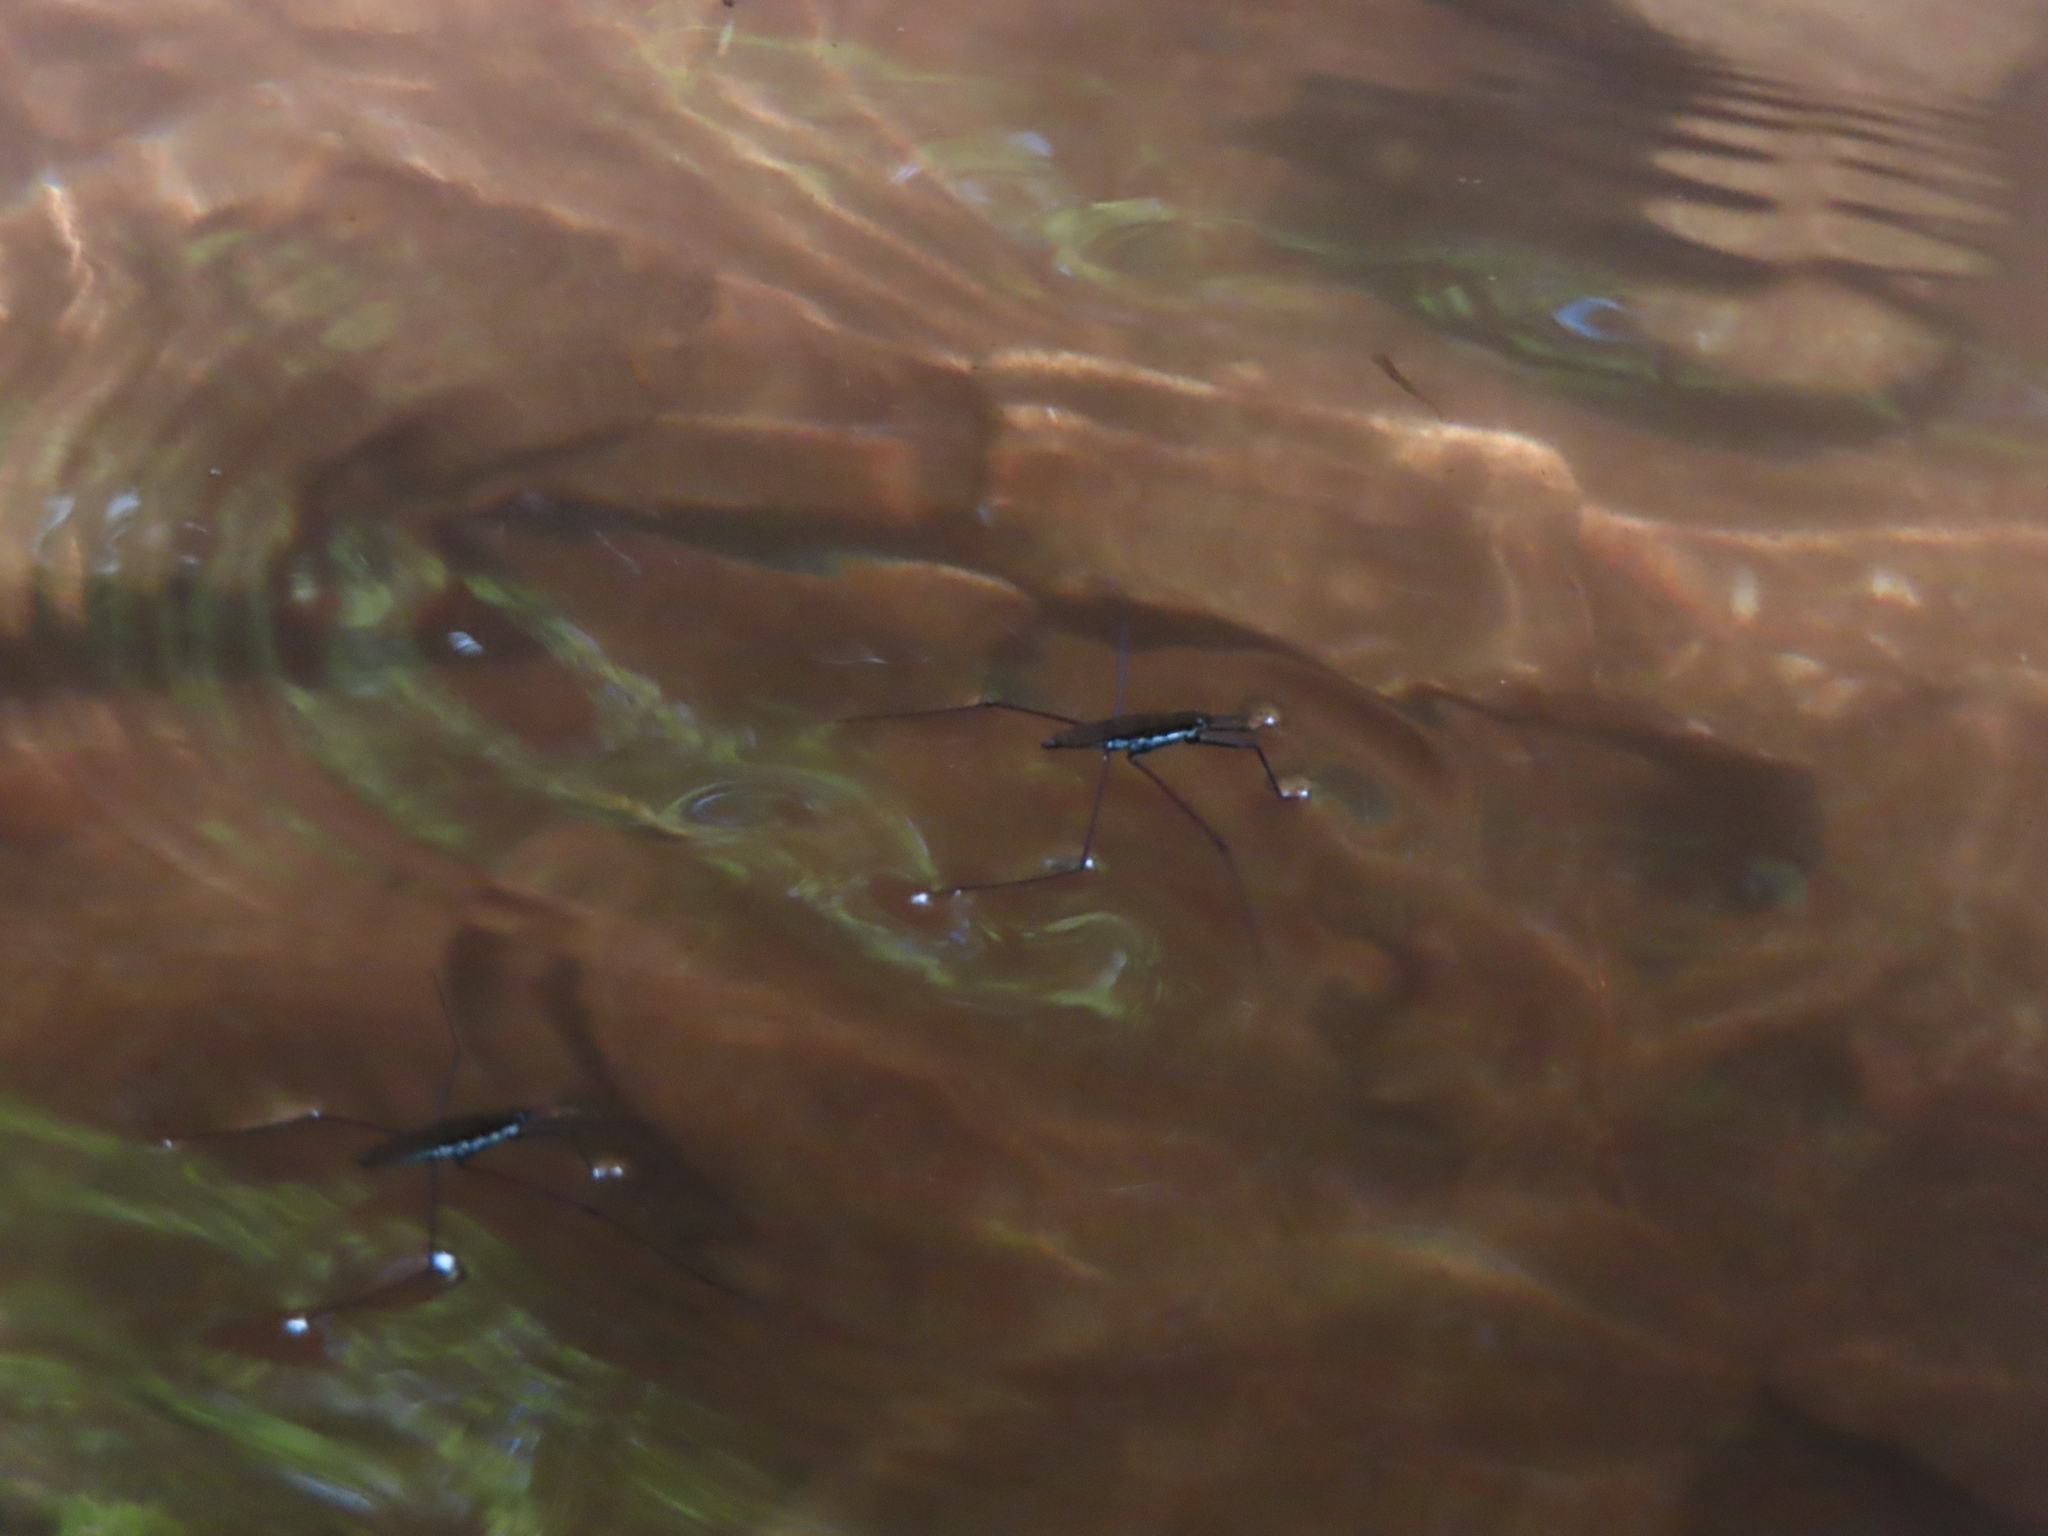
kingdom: Animalia
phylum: Arthropoda
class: Insecta
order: Hemiptera
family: Gerridae
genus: Aquarius
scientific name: Aquarius
